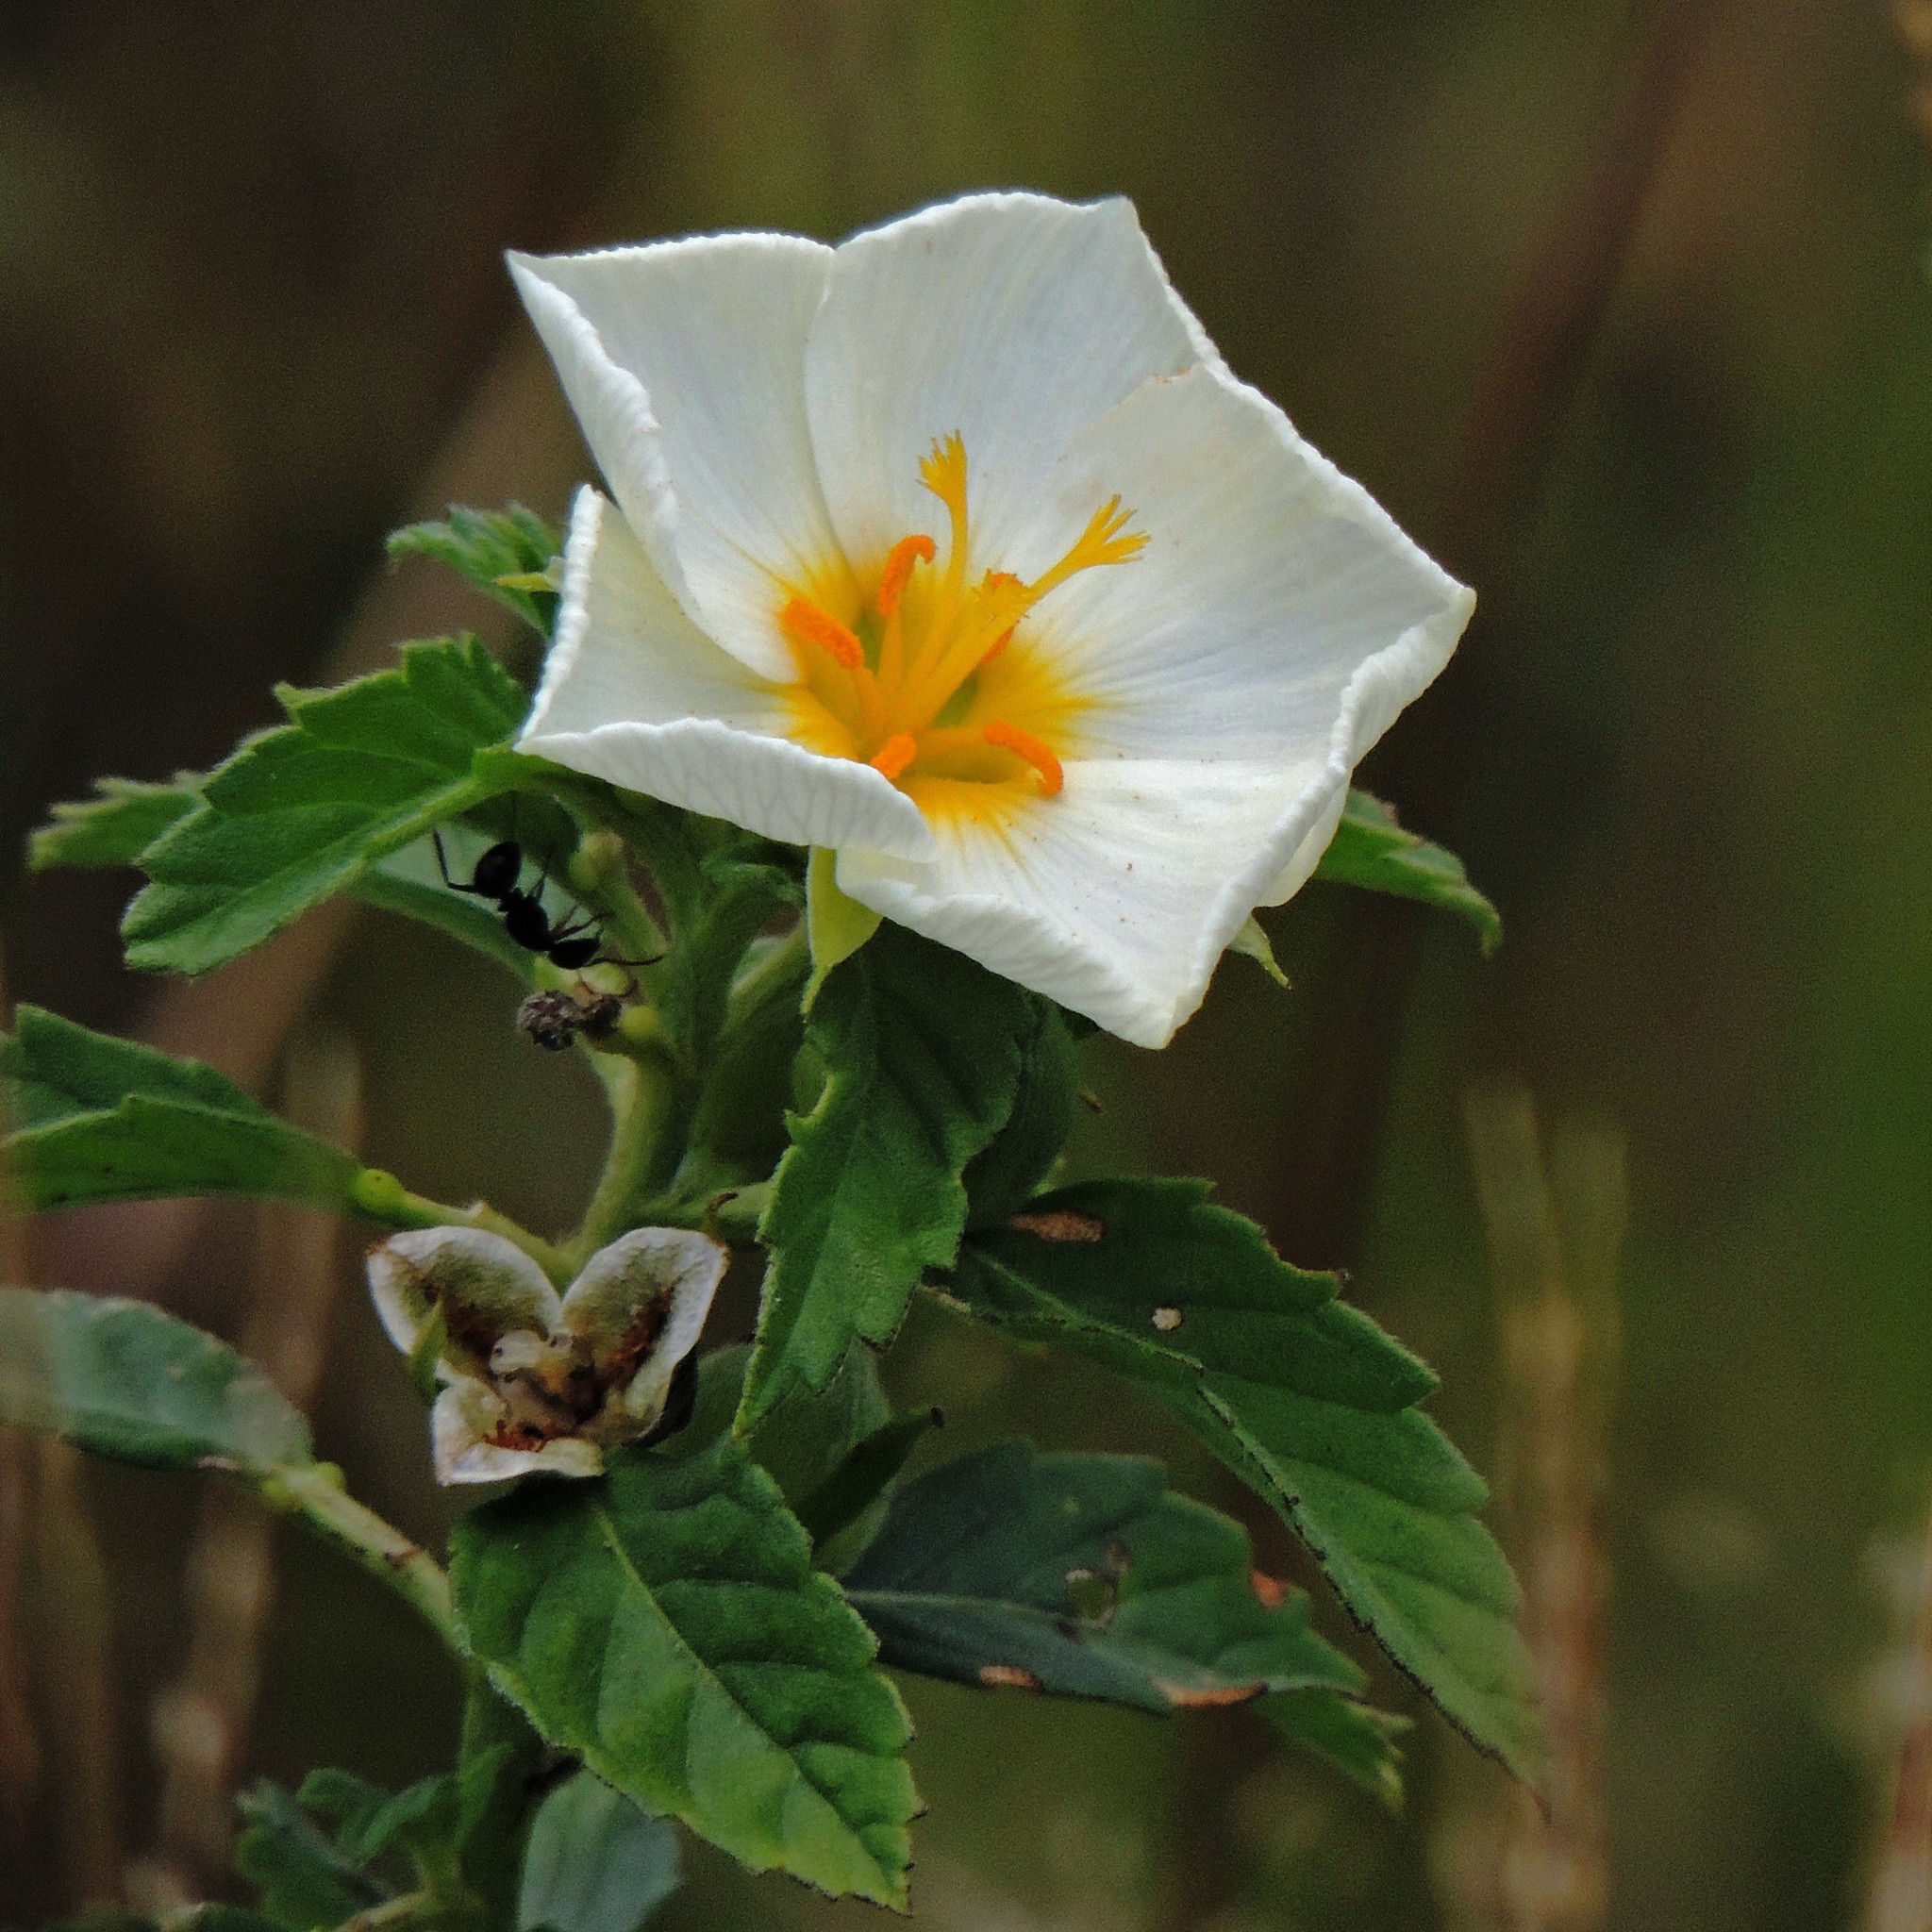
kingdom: Plantae
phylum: Tracheophyta
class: Magnoliopsida
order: Malpighiales
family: Turneraceae
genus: Turnera
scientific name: Turnera orientalis
